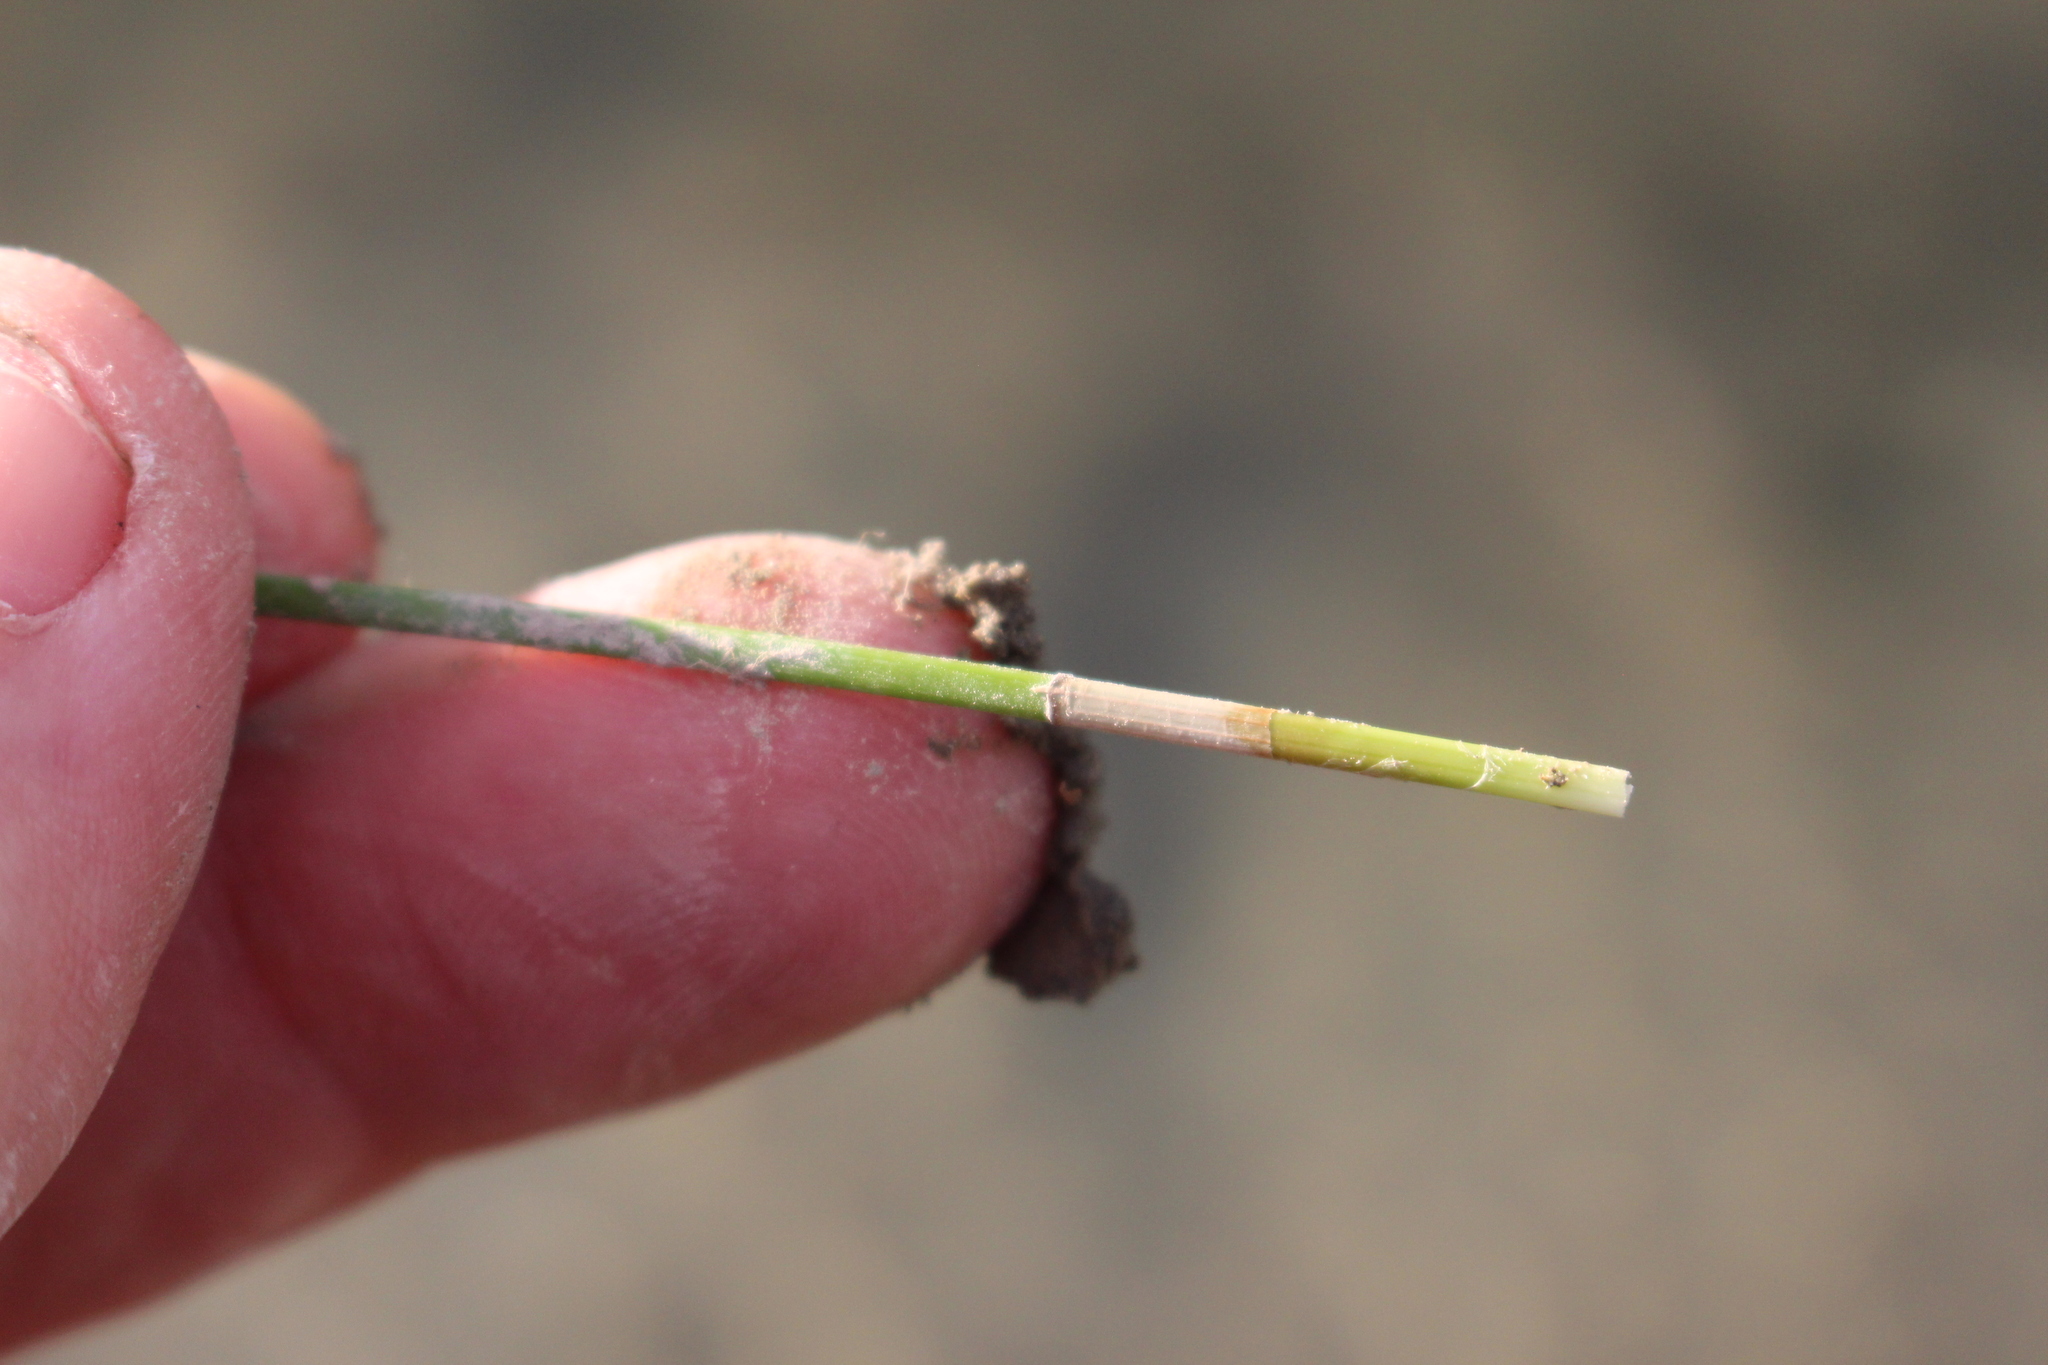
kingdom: Plantae
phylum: Tracheophyta
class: Liliopsida
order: Poales
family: Cyperaceae
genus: Eleocharis
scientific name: Eleocharis acuta
